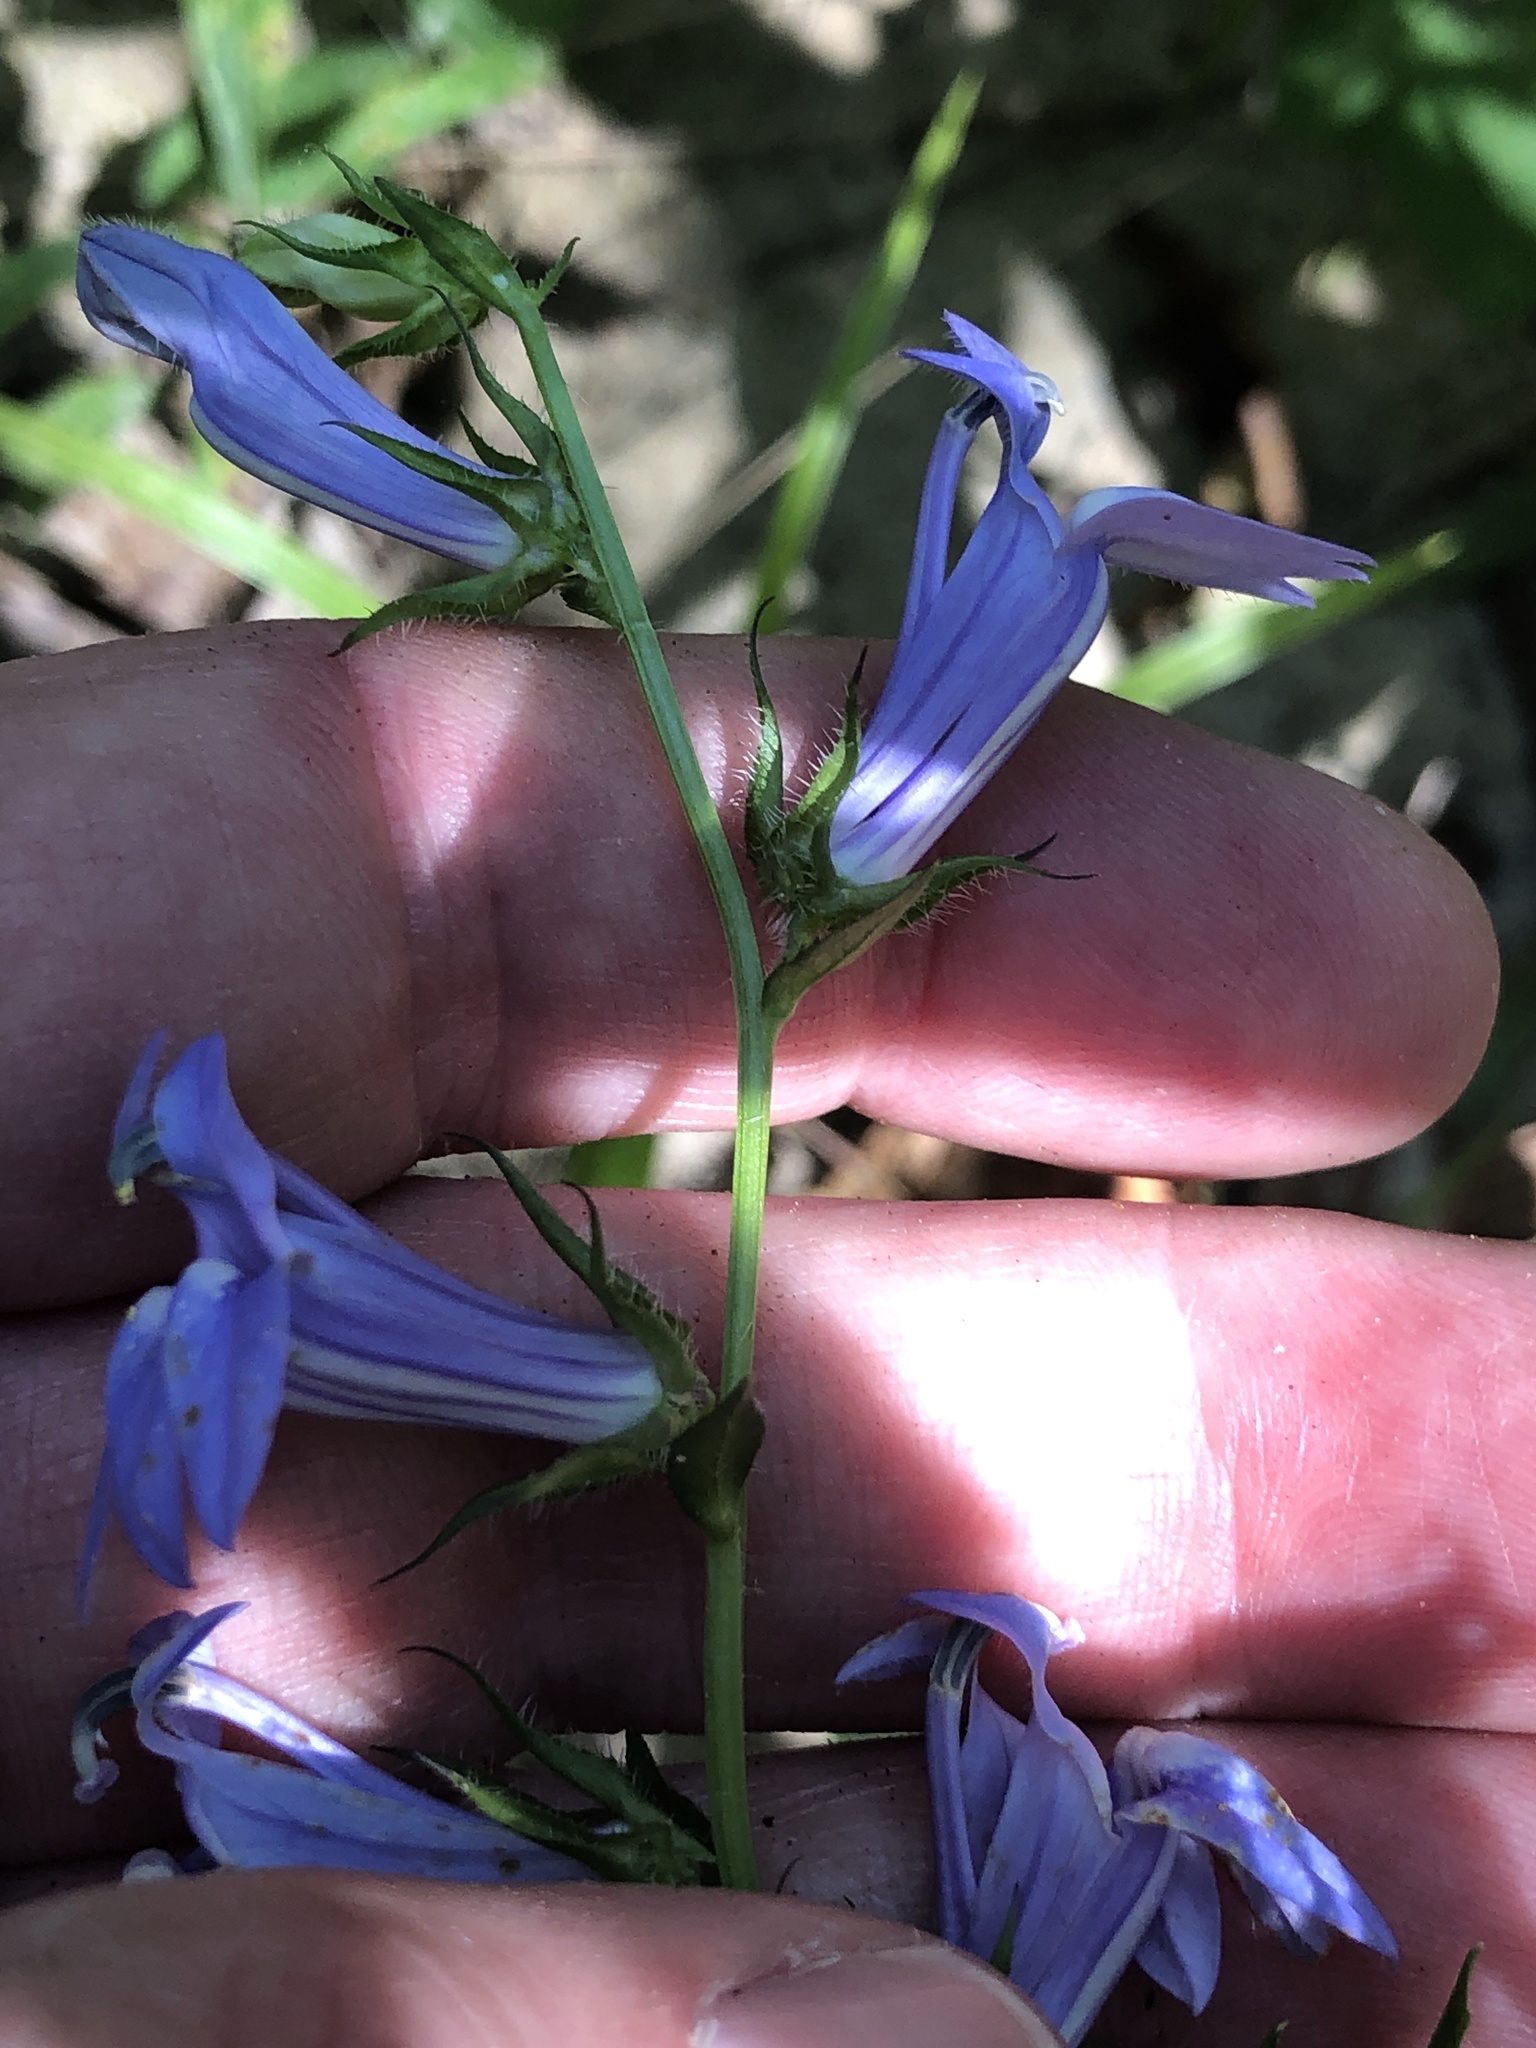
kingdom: Plantae
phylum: Tracheophyta
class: Magnoliopsida
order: Asterales
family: Campanulaceae
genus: Lobelia
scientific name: Lobelia siphilitica
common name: Great lobelia
